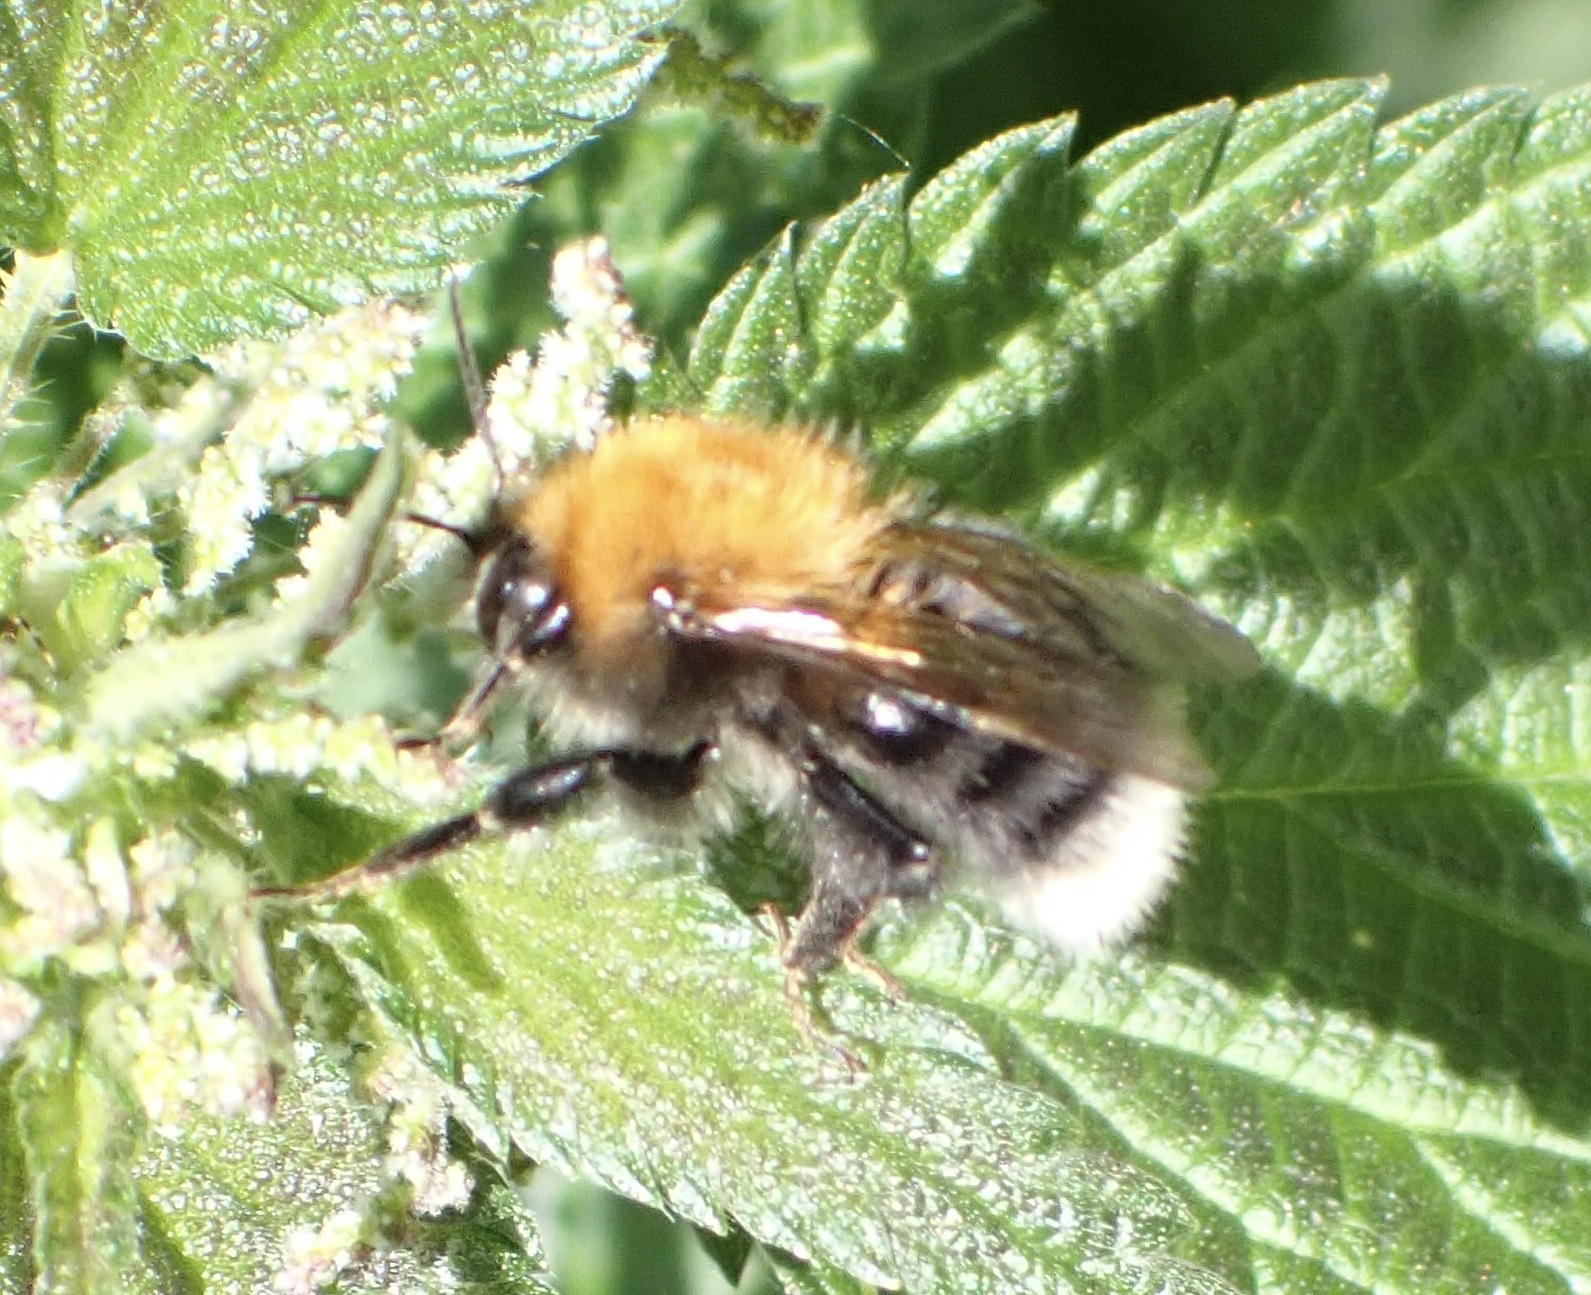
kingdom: Animalia
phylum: Arthropoda
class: Insecta
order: Hymenoptera
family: Apidae
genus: Bombus
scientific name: Bombus hypnorum
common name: New garden bumblebee
